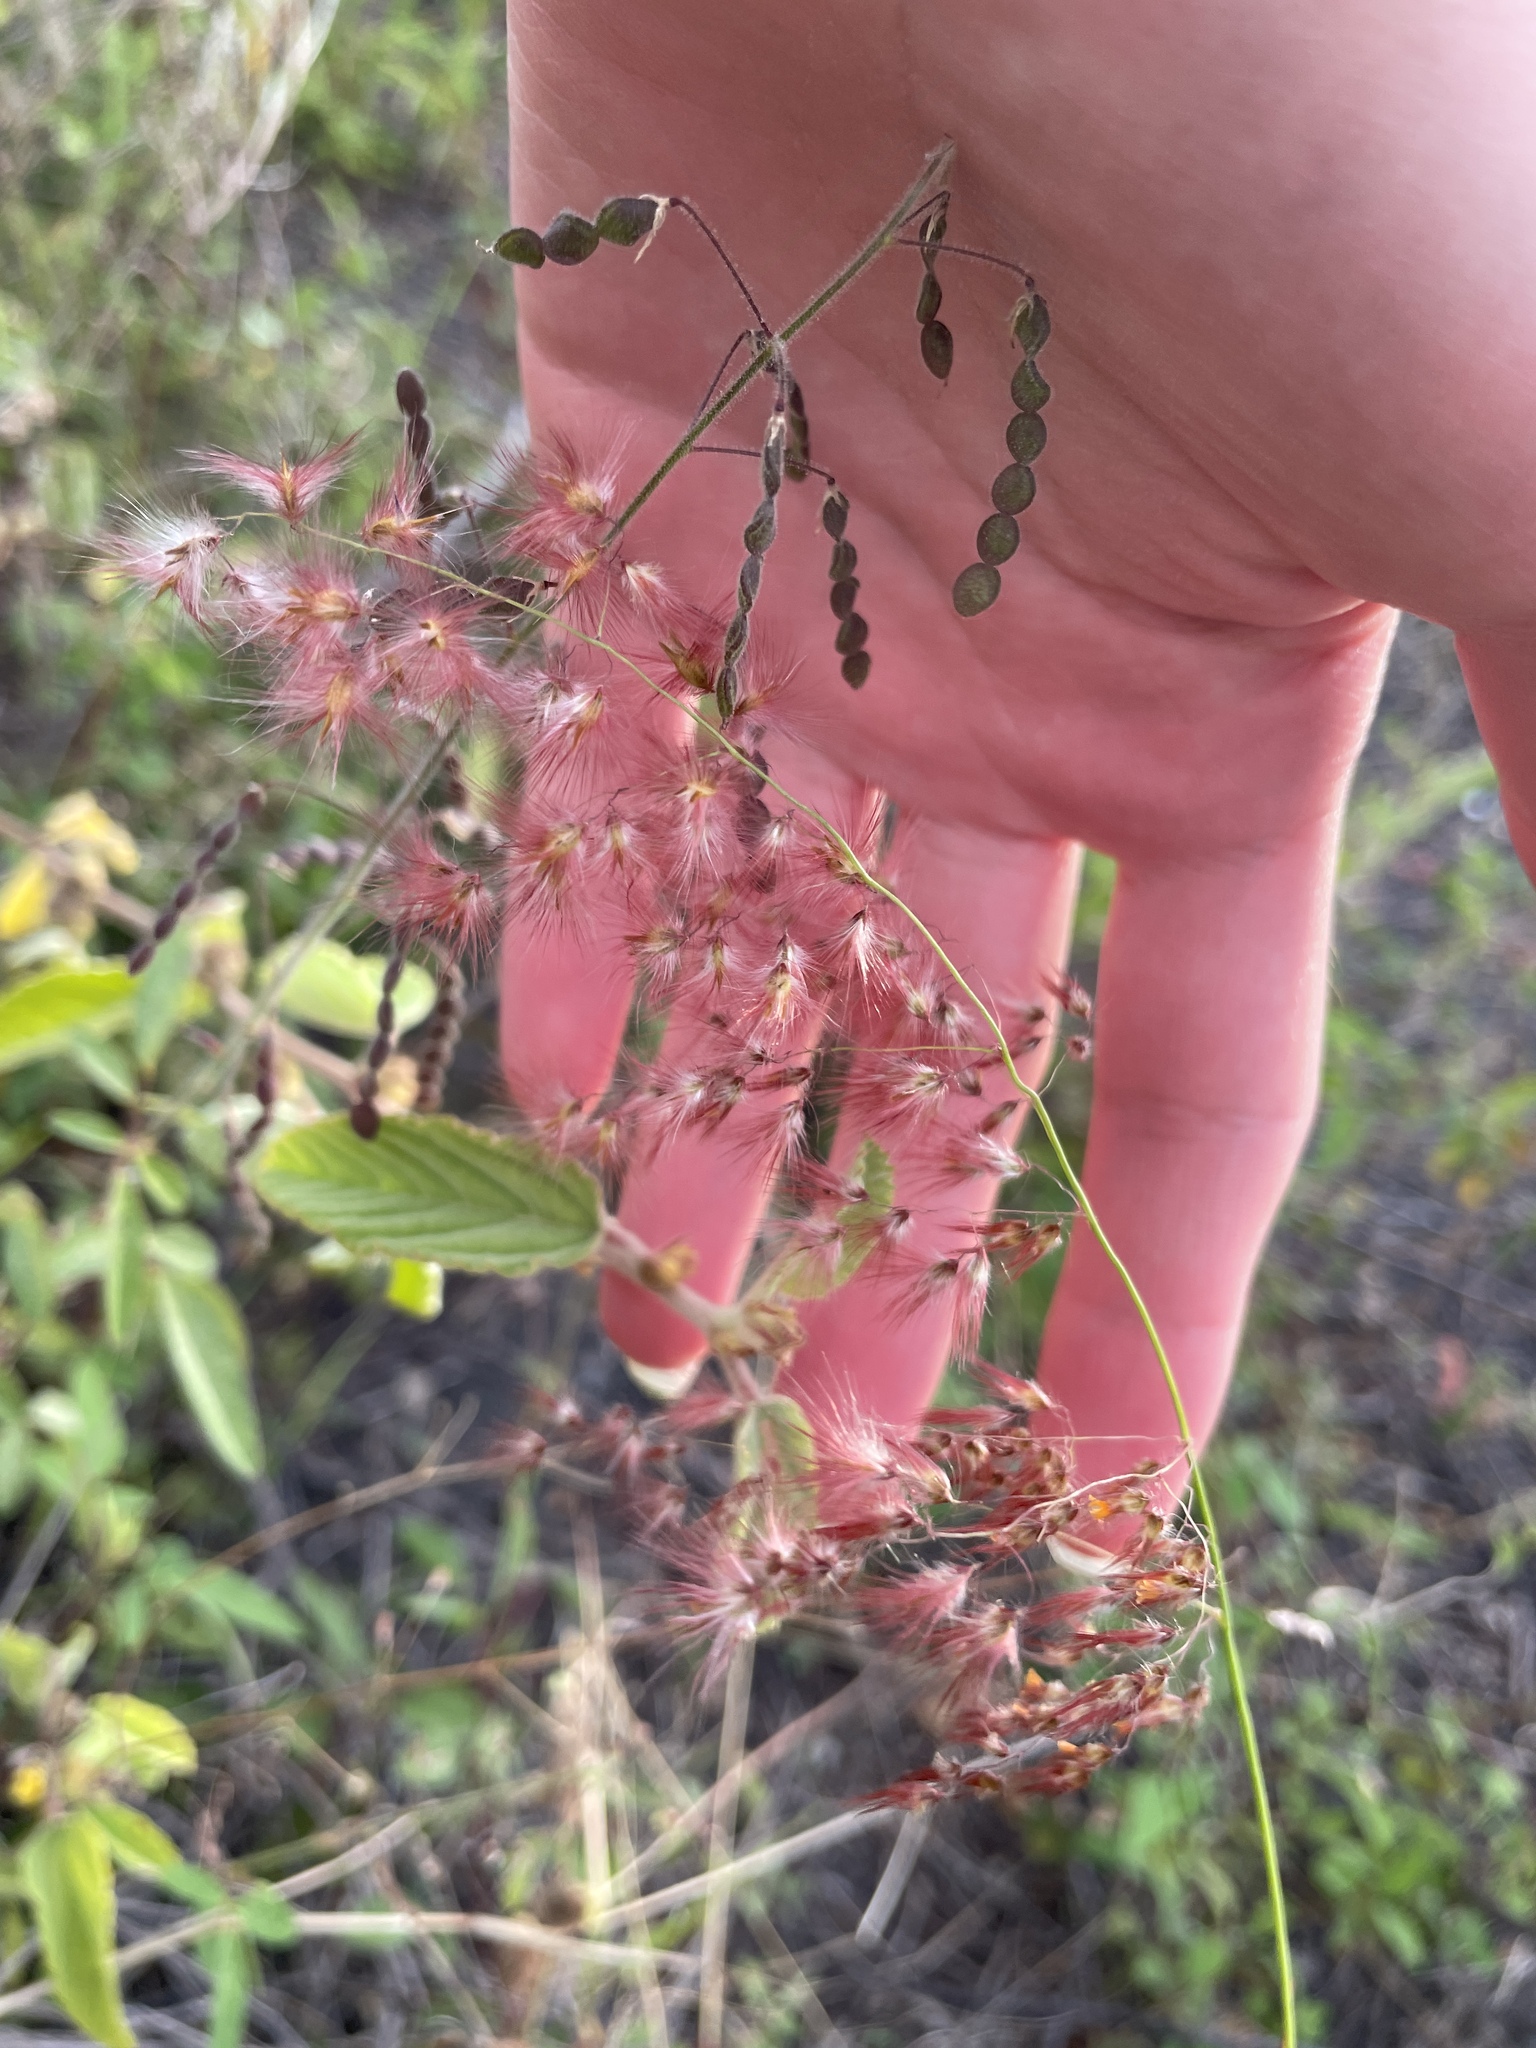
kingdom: Plantae
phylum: Tracheophyta
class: Liliopsida
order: Poales
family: Poaceae
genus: Melinis
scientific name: Melinis repens
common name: Rose natal grass
